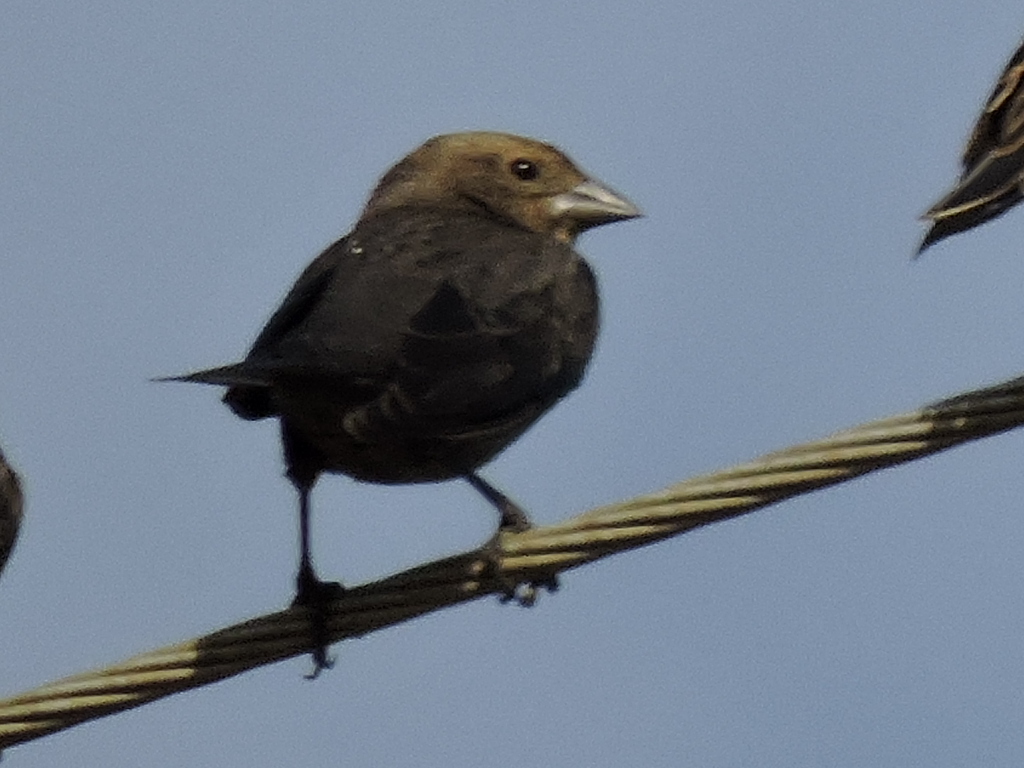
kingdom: Animalia
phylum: Chordata
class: Aves
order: Passeriformes
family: Icteridae
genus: Molothrus
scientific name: Molothrus ater
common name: Brown-headed cowbird
